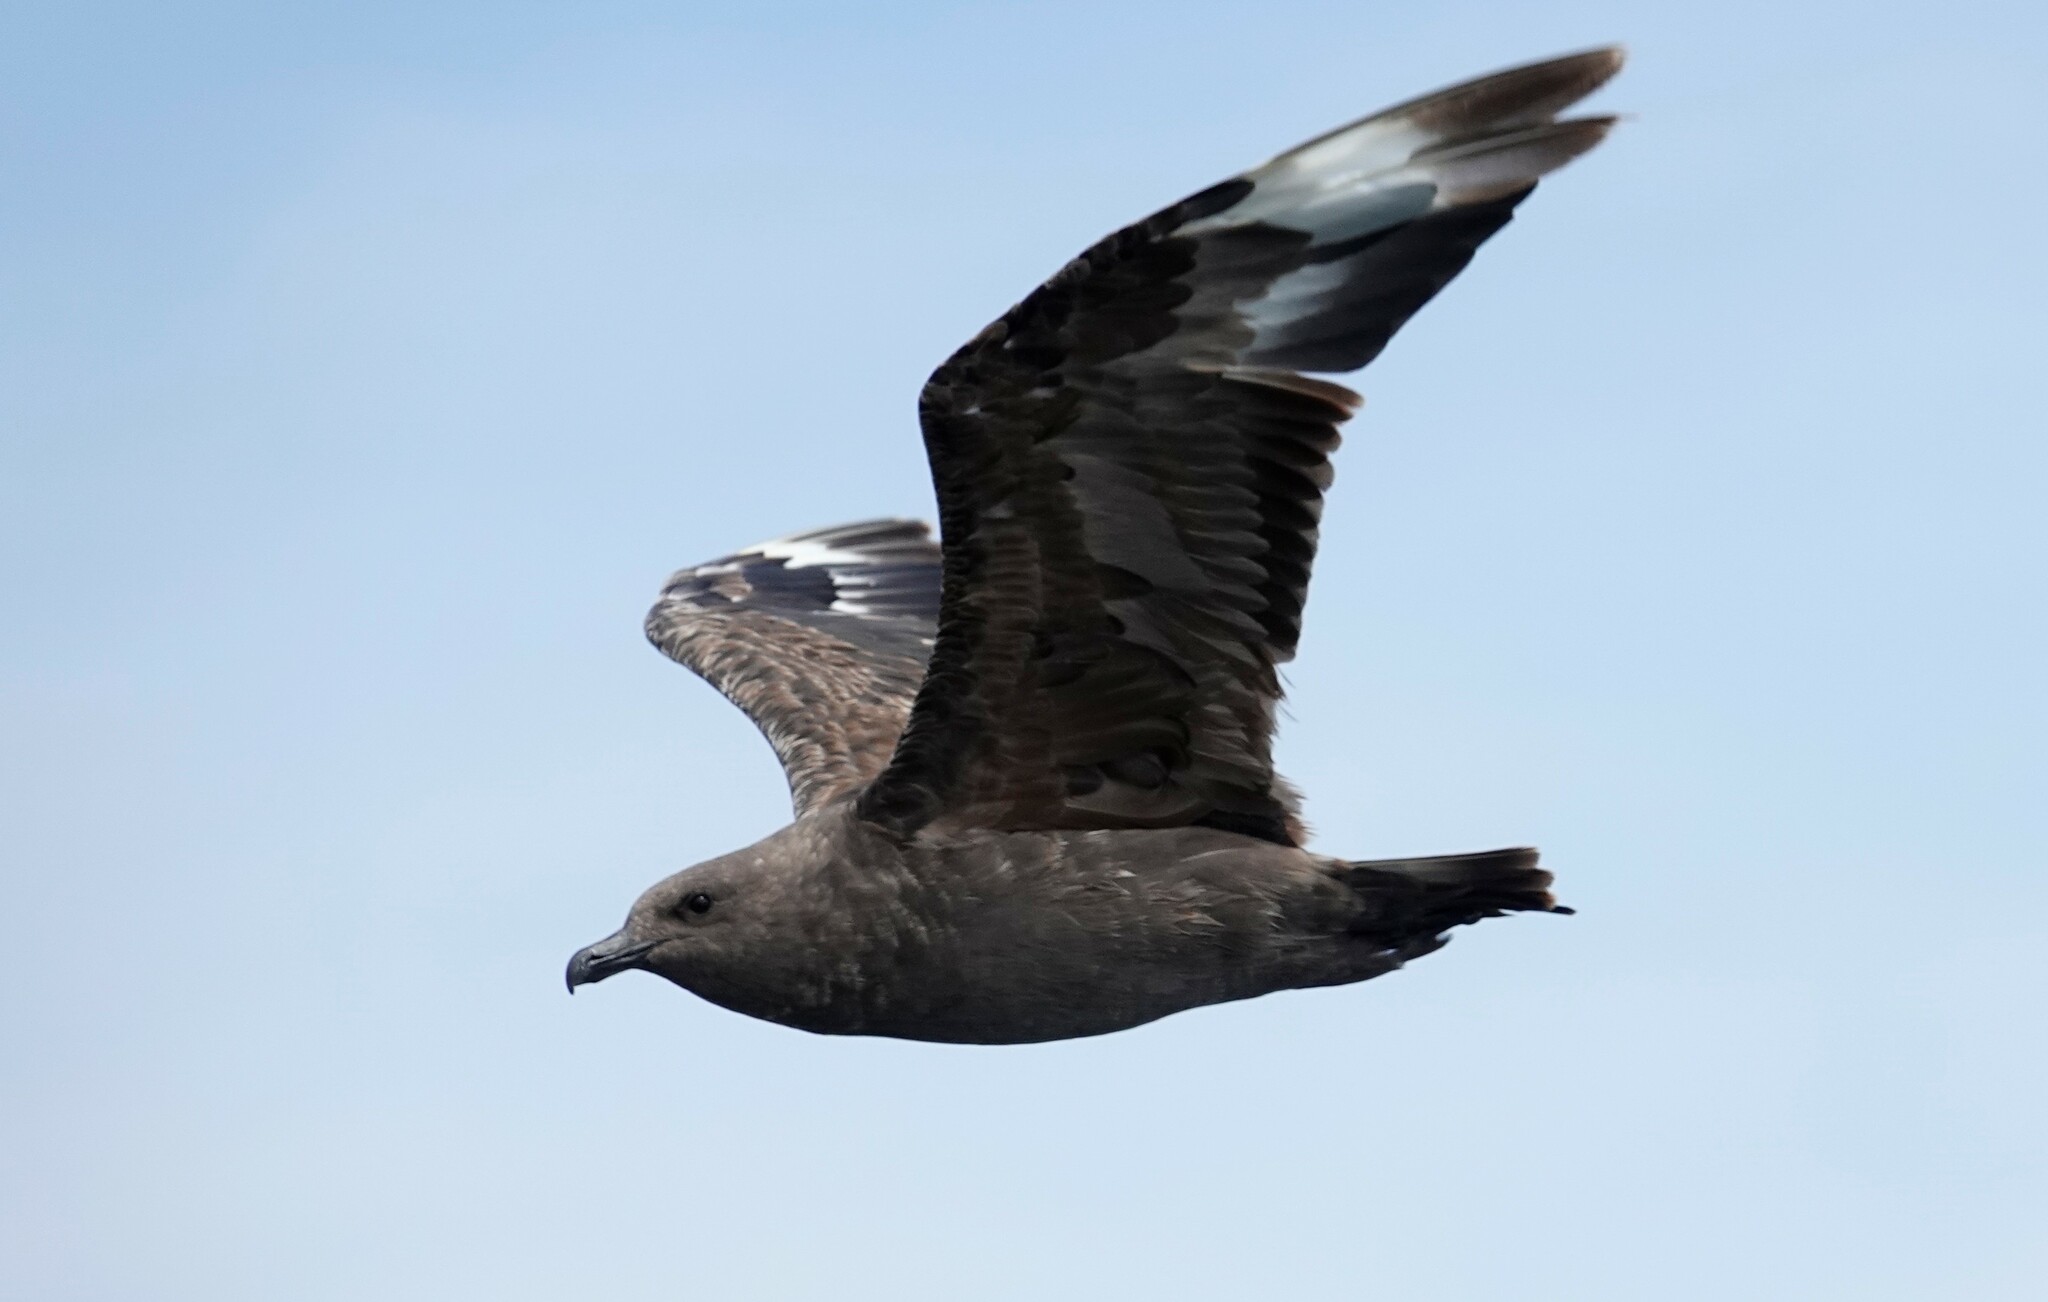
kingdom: Animalia
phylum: Chordata
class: Aves
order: Charadriiformes
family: Stercorariidae
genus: Stercorarius
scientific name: Stercorarius maccormicki
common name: South polar skua
